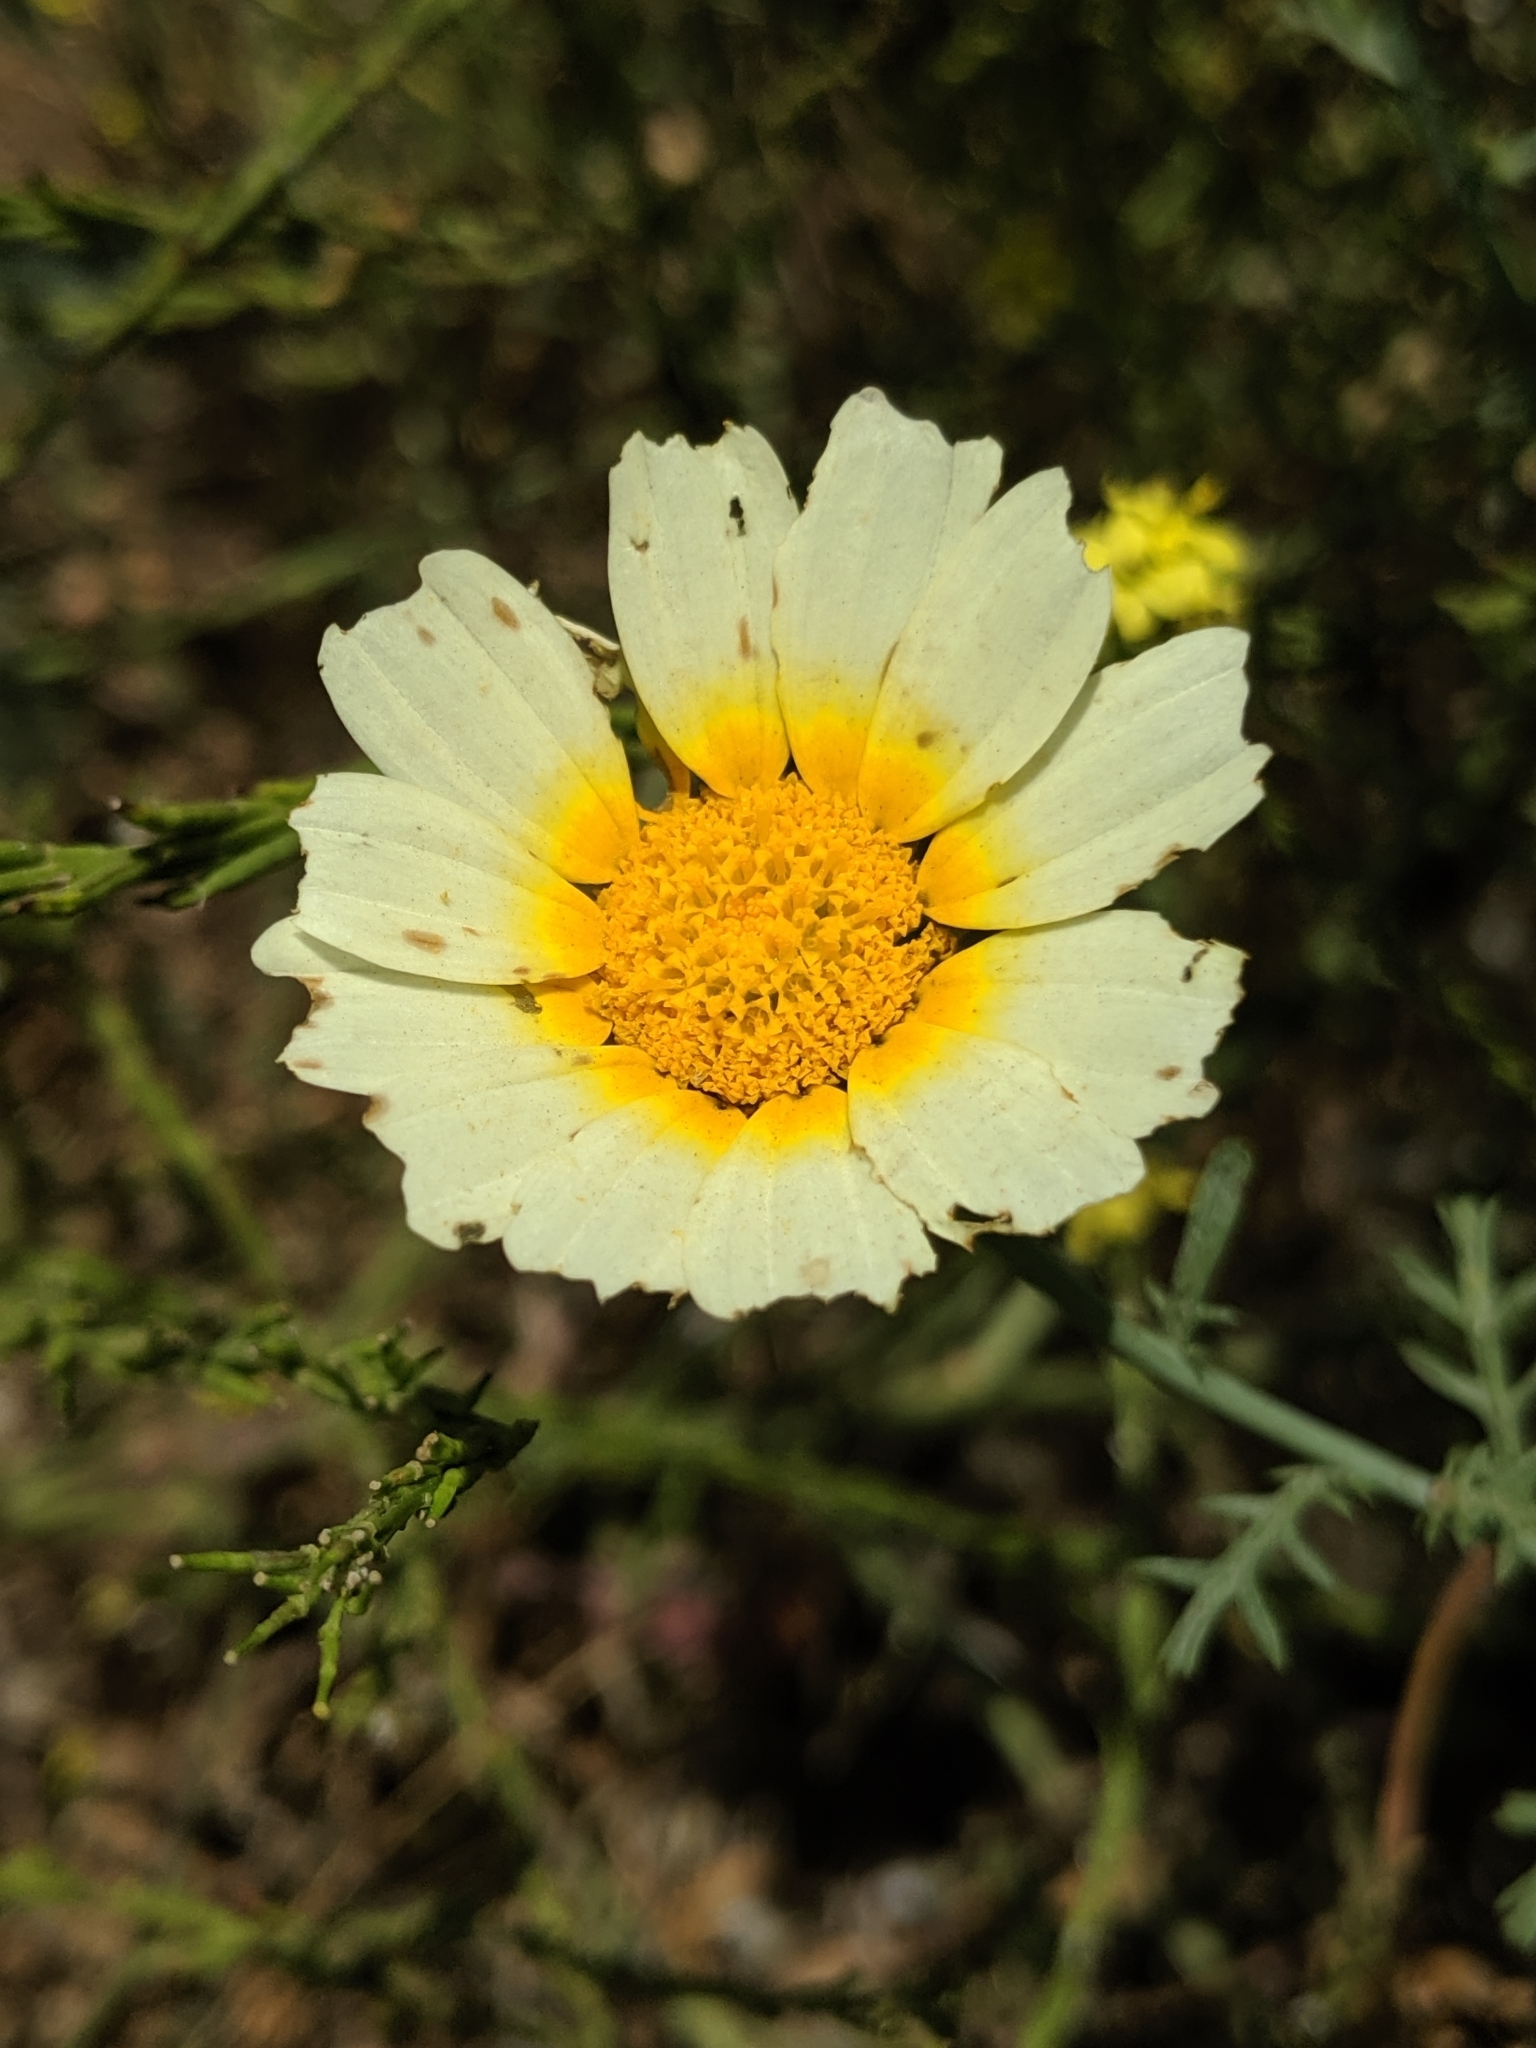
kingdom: Plantae
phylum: Tracheophyta
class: Magnoliopsida
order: Asterales
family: Asteraceae
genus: Glebionis
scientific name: Glebionis coronaria
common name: Crowndaisy
